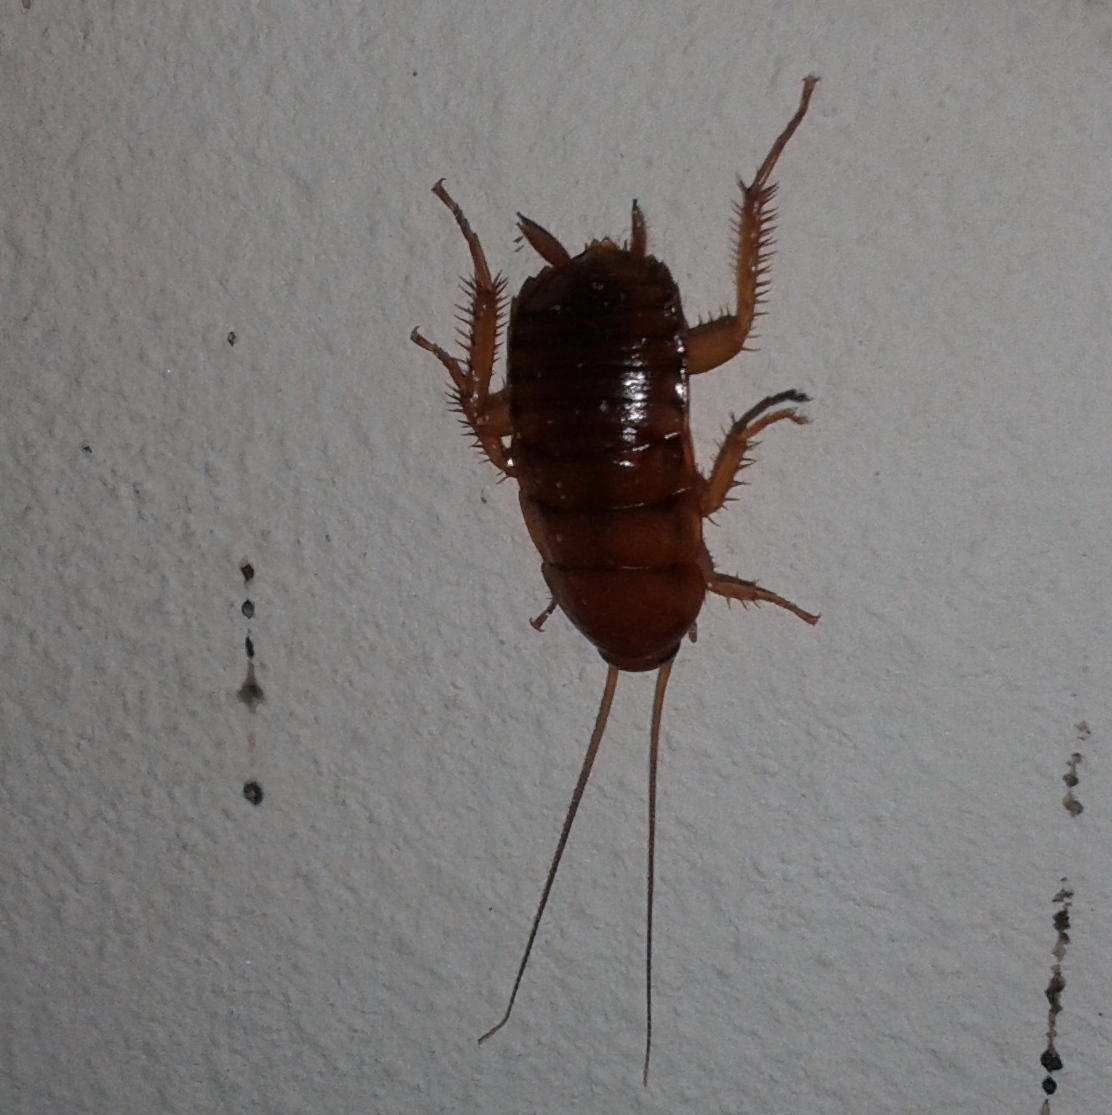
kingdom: Animalia
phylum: Arthropoda
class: Insecta
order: Blattodea
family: Blattidae
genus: Periplaneta
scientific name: Periplaneta americana
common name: American cockroach
